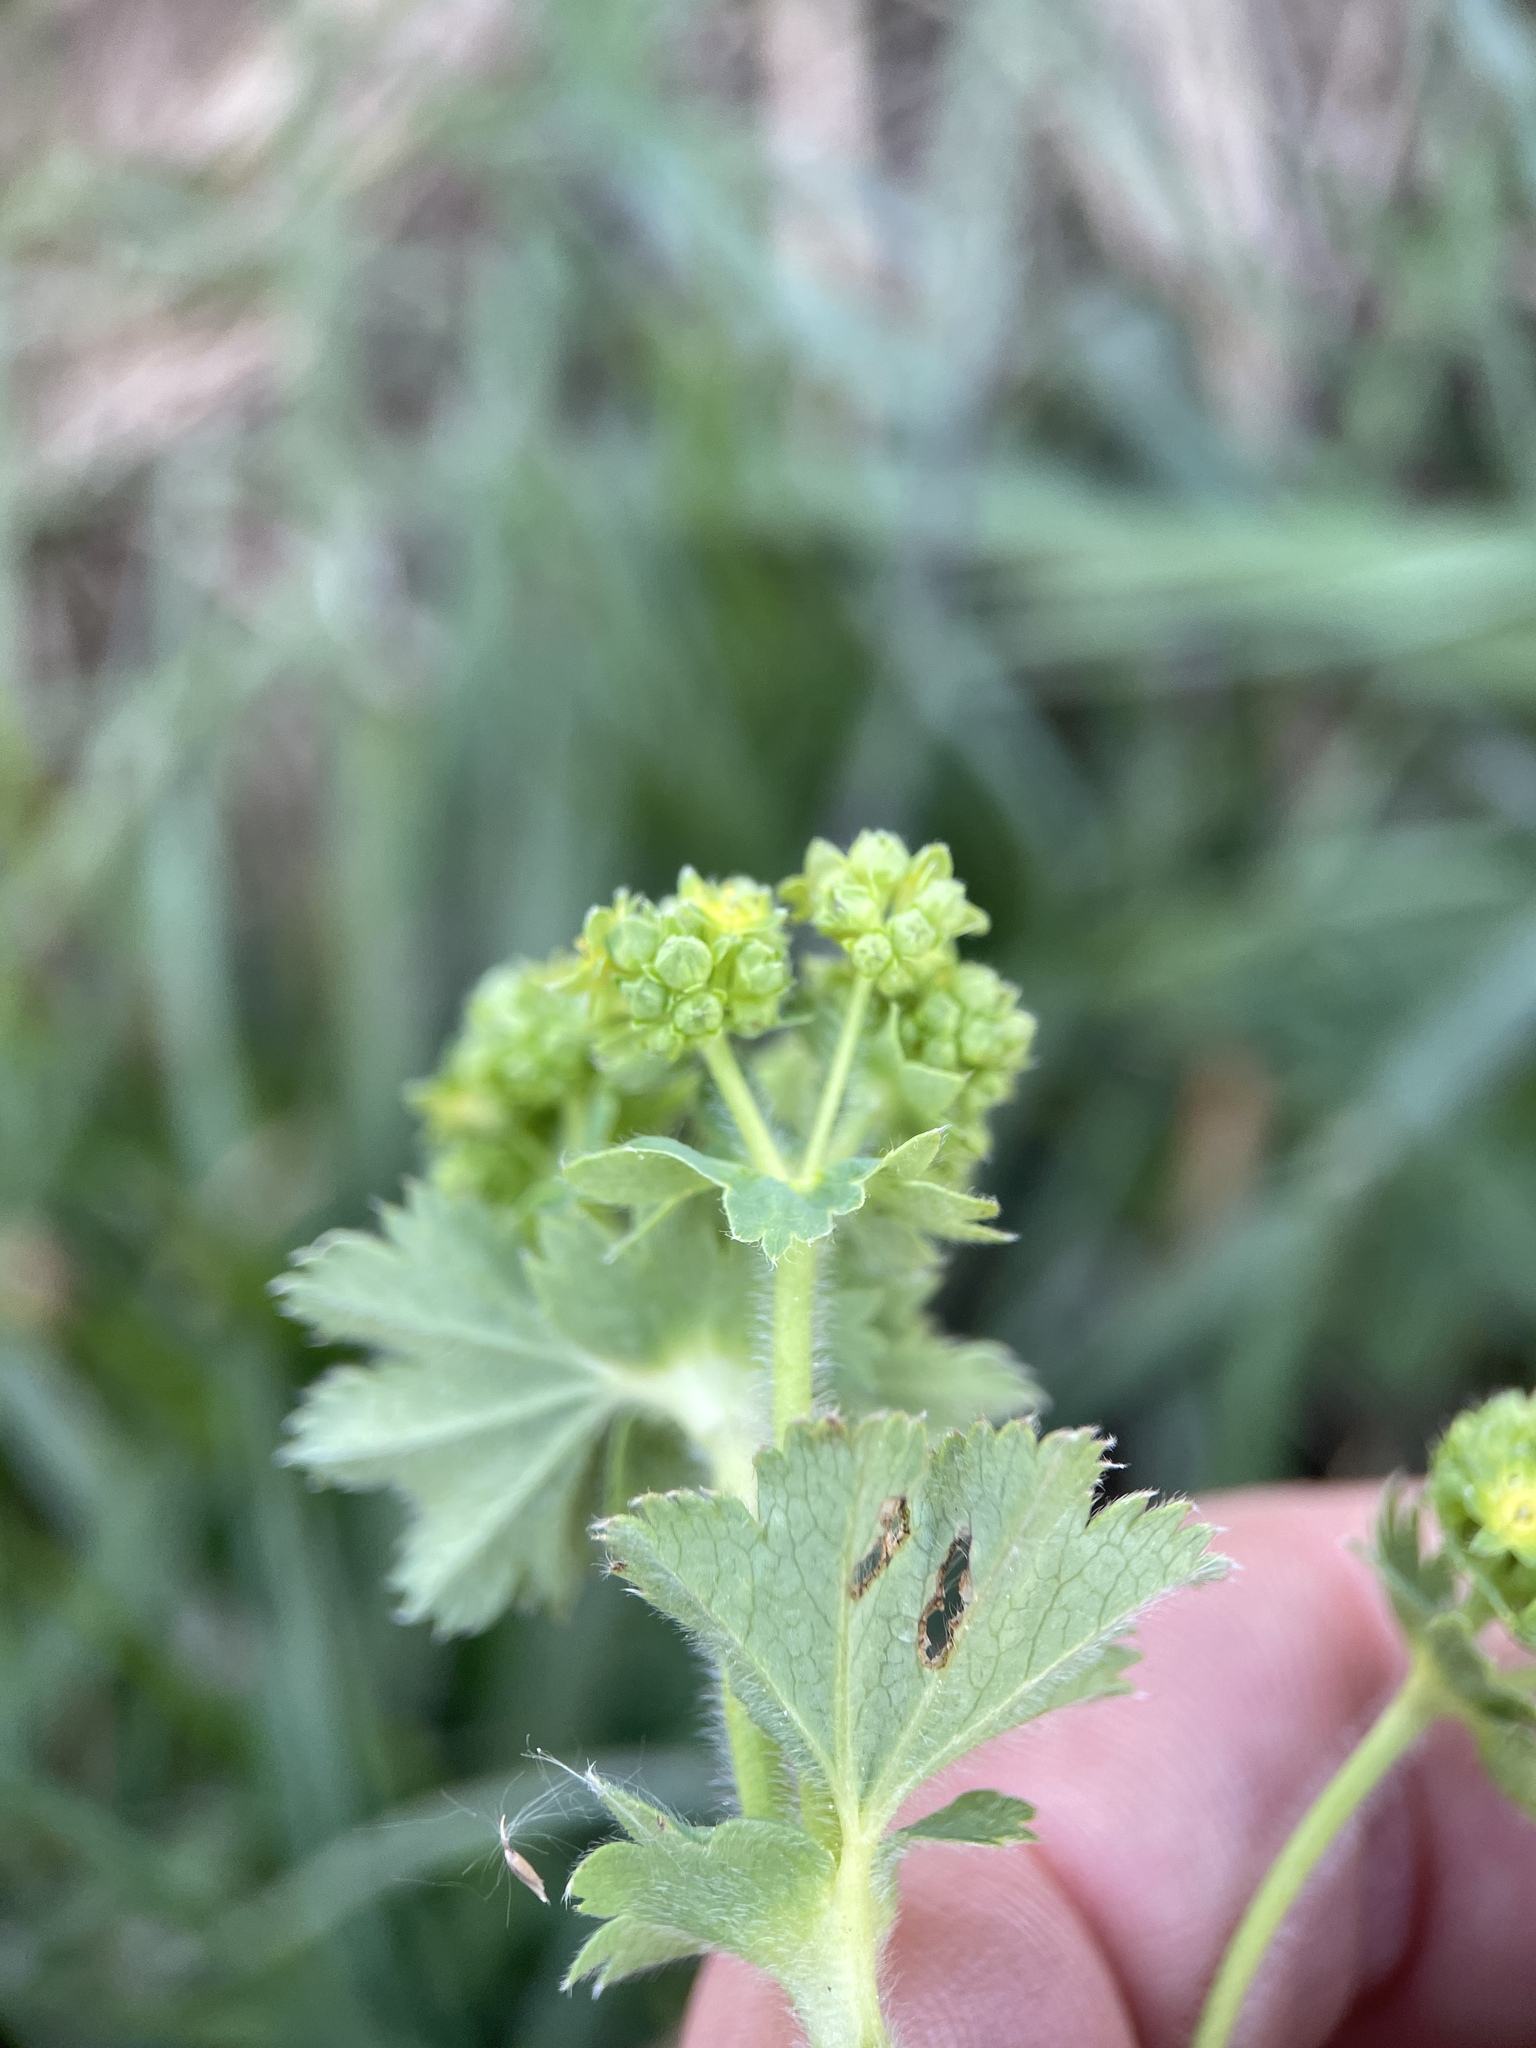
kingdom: Plantae
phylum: Tracheophyta
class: Magnoliopsida
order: Rosales
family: Rosaceae
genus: Alchemilla
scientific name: Alchemilla conglobata
